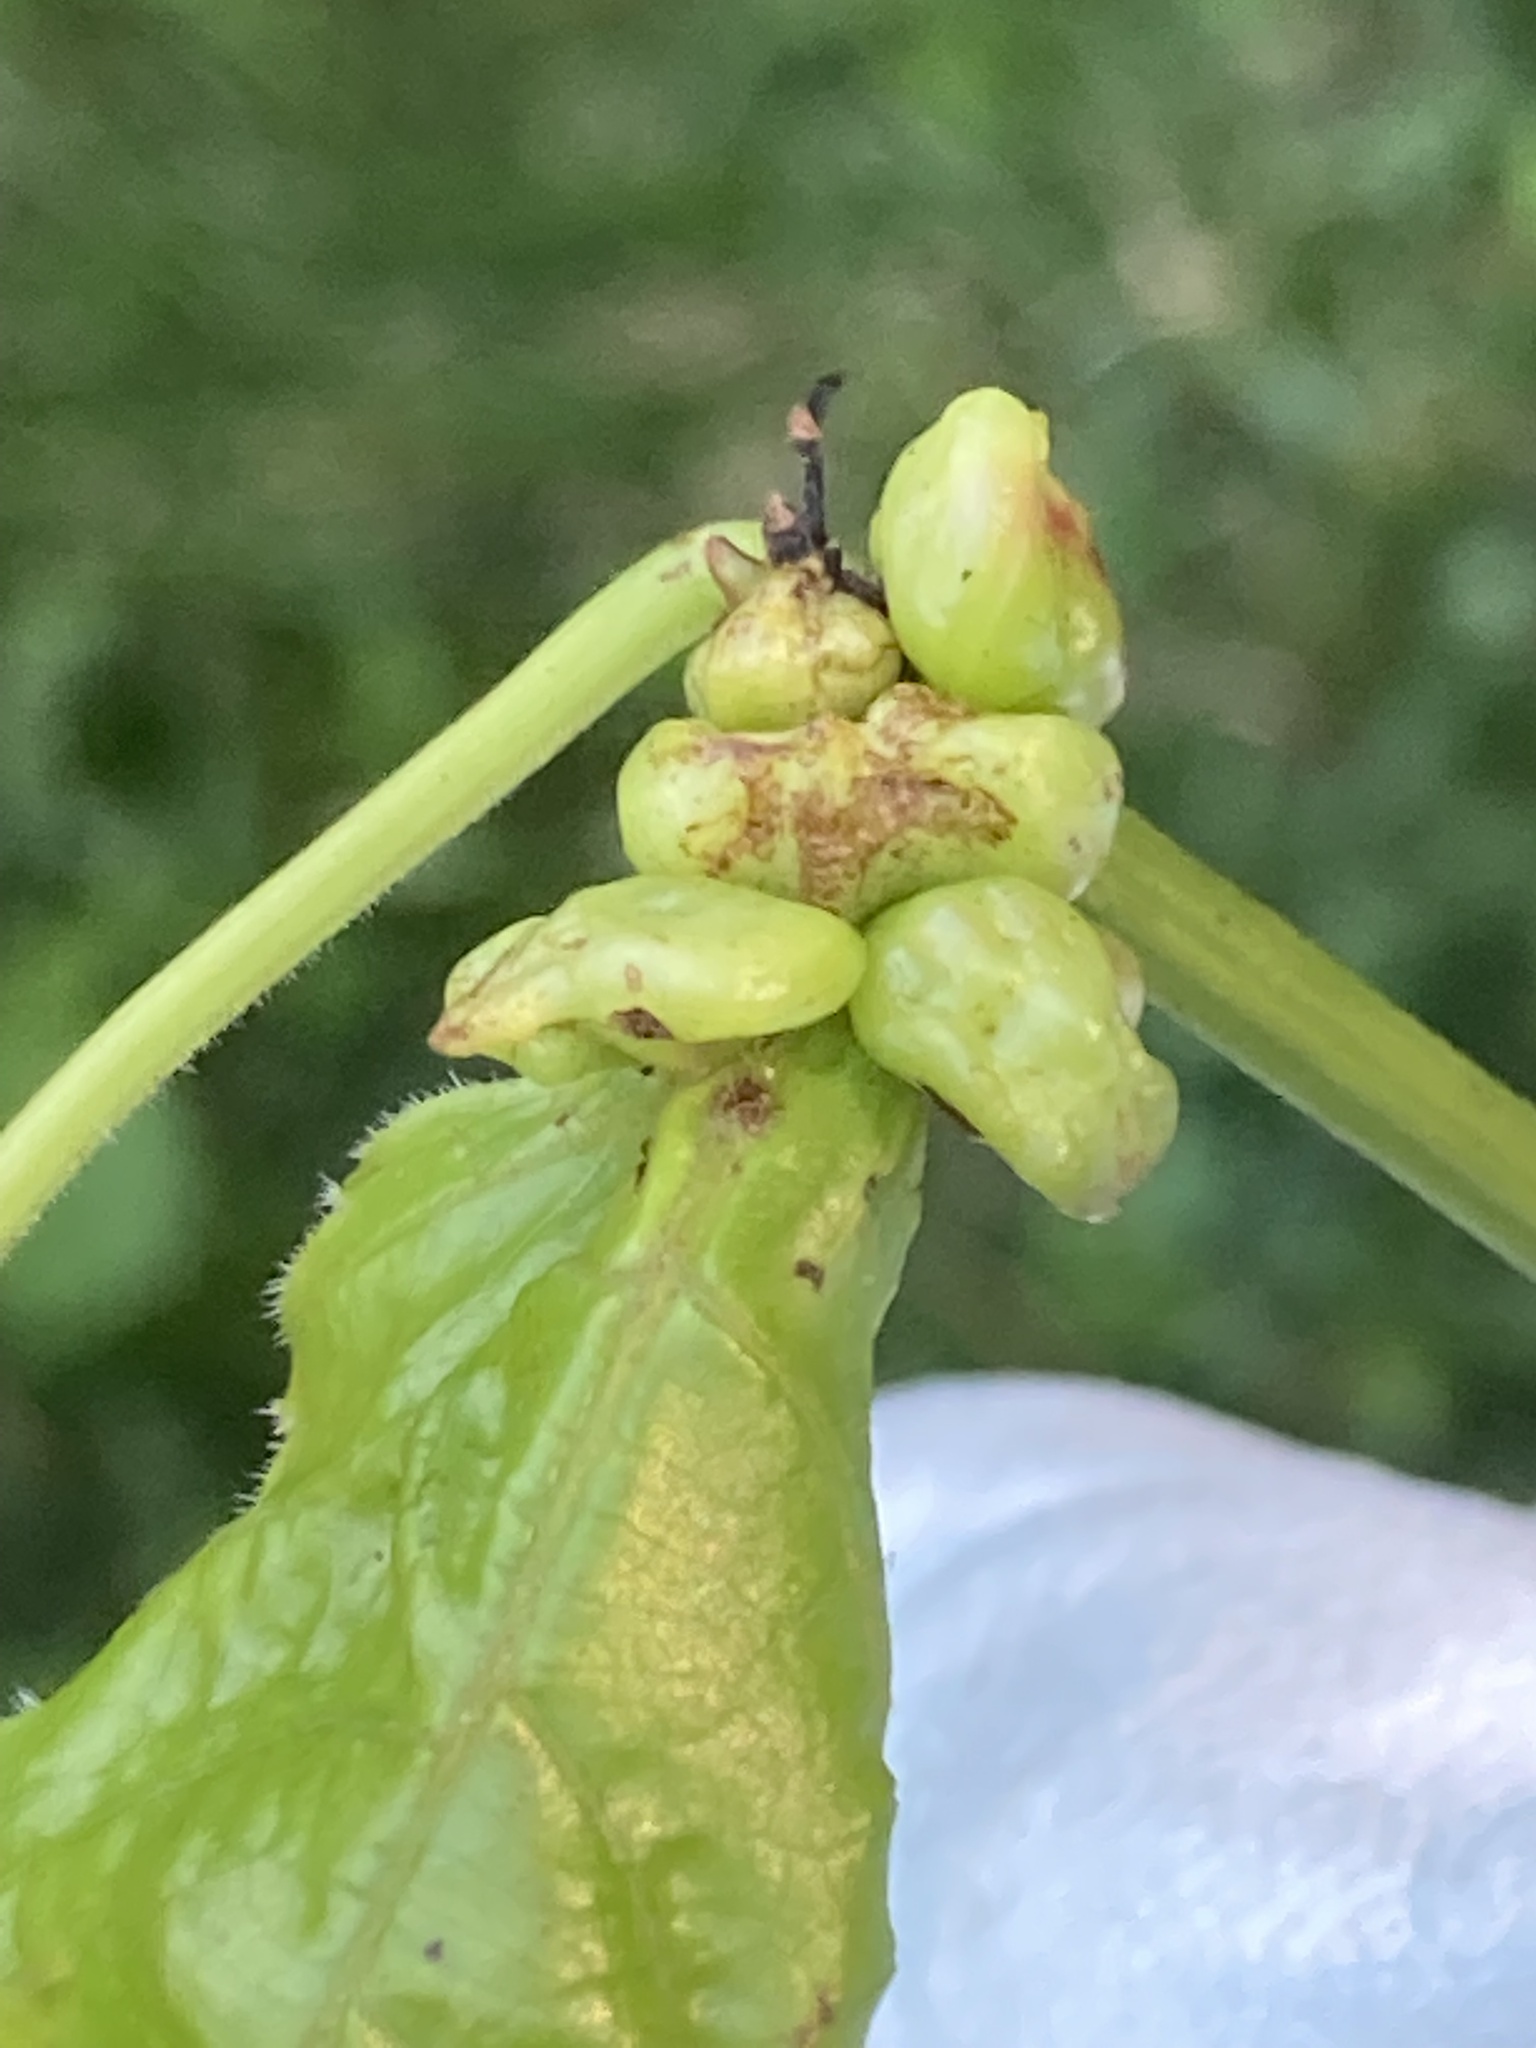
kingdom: Animalia
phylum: Arthropoda
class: Insecta
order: Diptera
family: Cecidomyiidae
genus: Ampelomyia
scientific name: Ampelomyia vitiscoryloides
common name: Grape filbert gall
